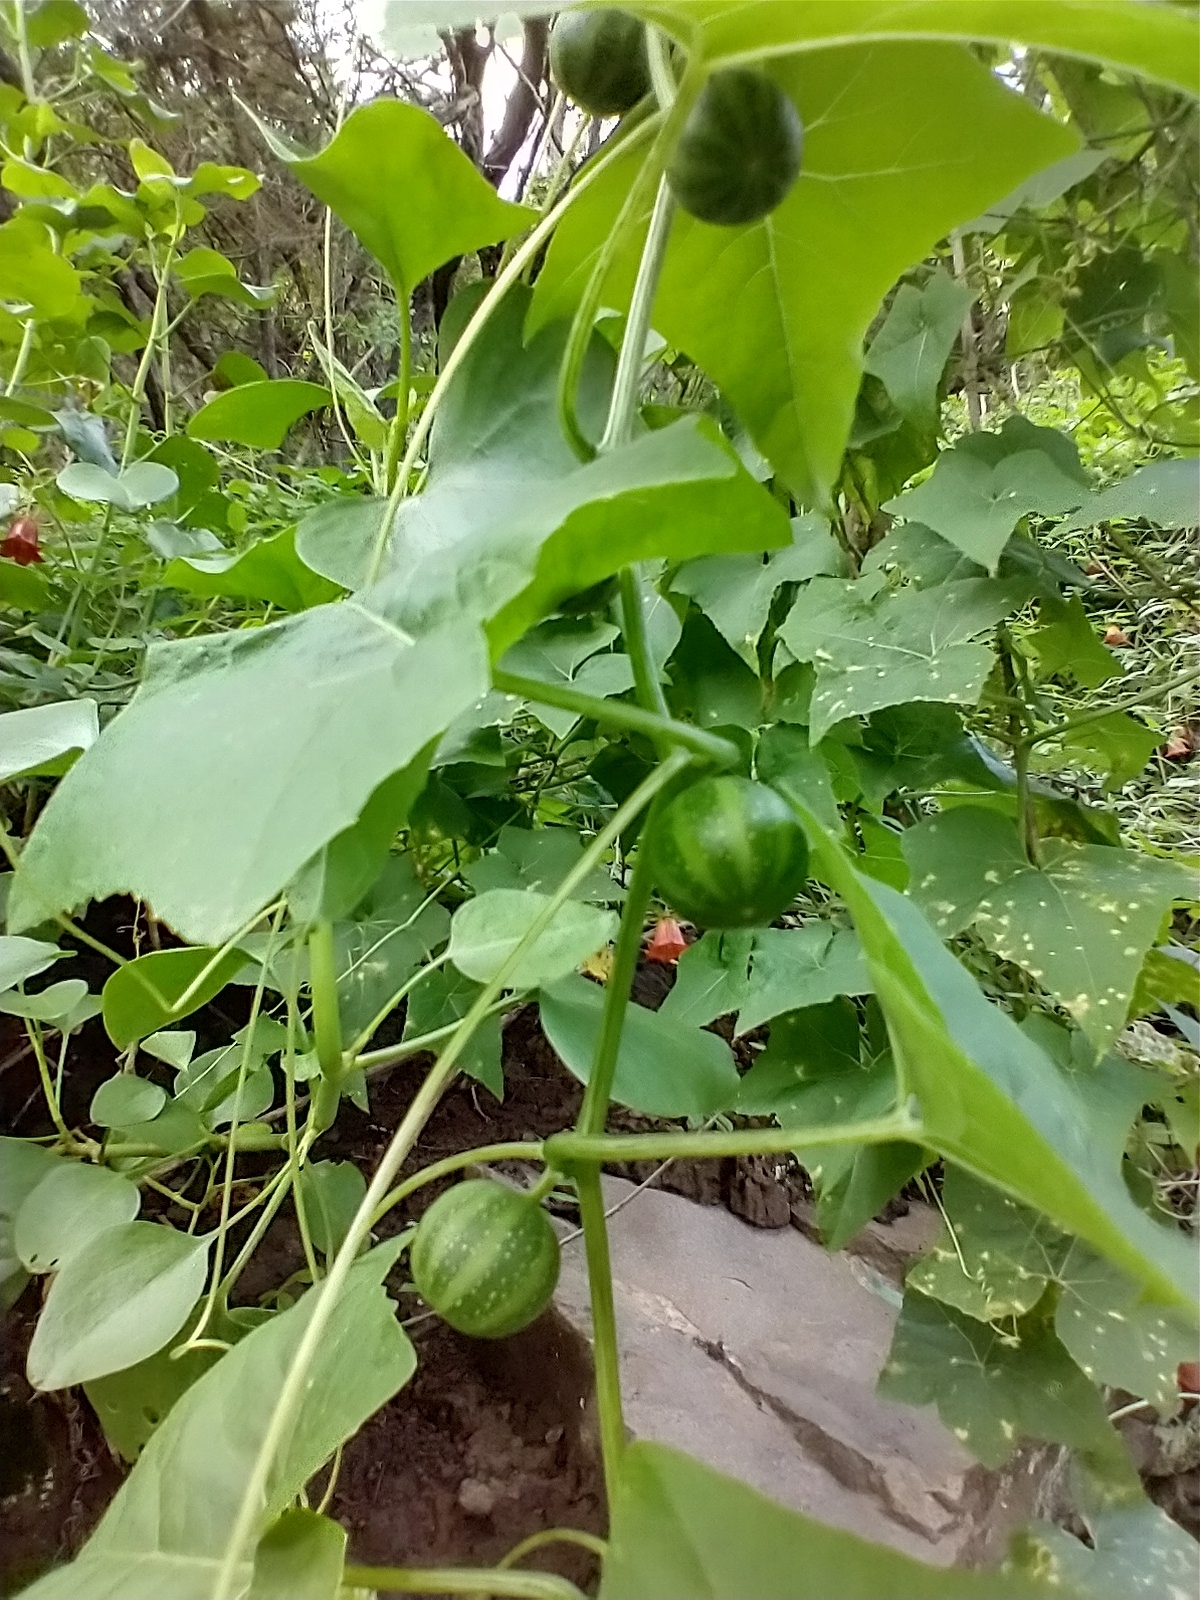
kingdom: Plantae
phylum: Tracheophyta
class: Magnoliopsida
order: Cucurbitales
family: Cucurbitaceae
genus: Bryonia
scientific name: Bryonia verrucosa
